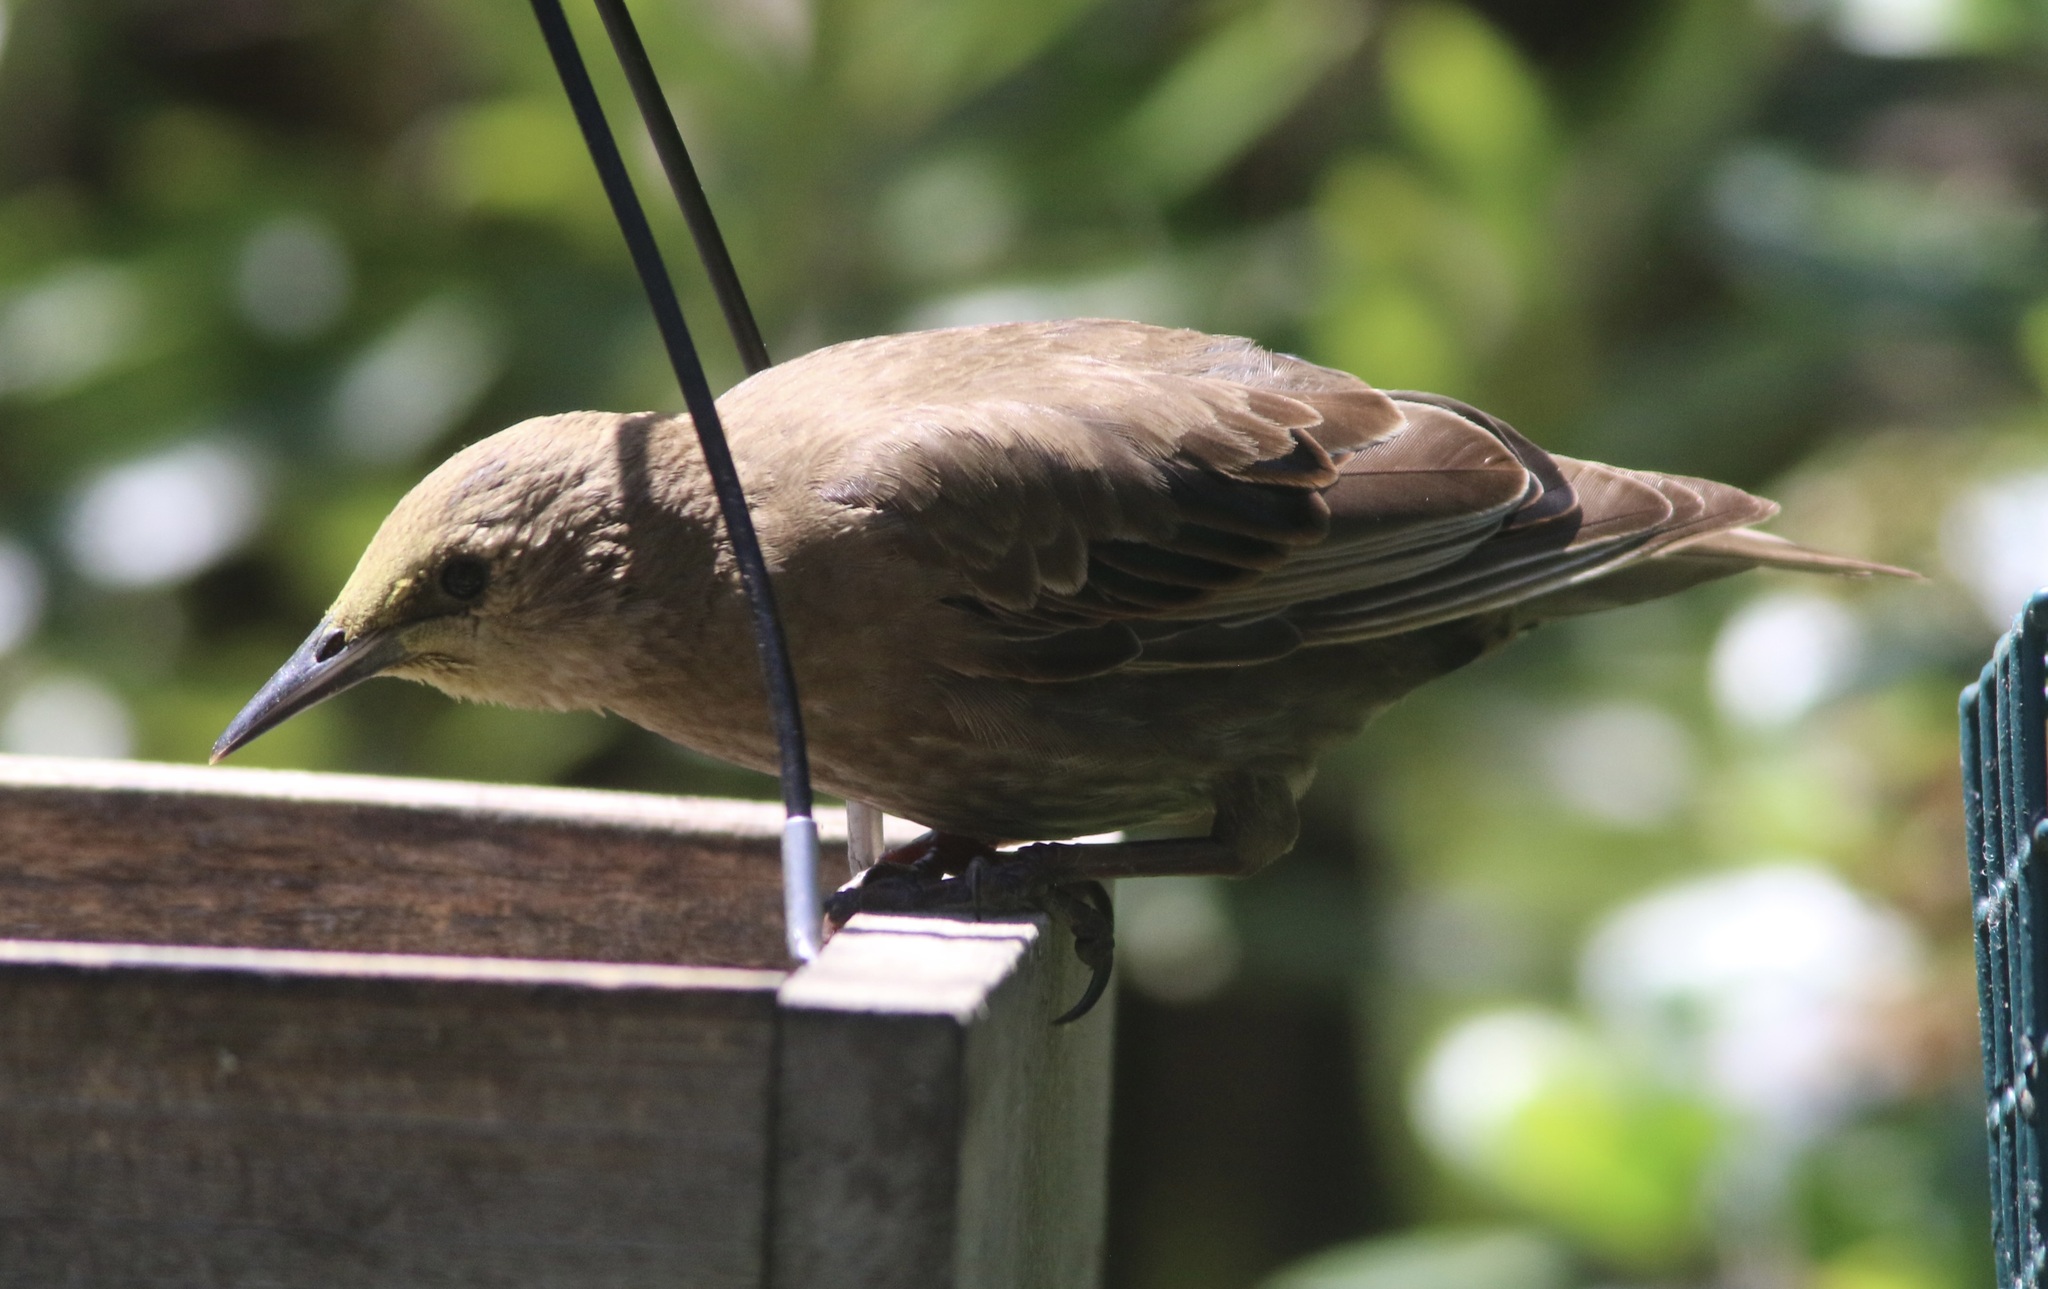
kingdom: Animalia
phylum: Chordata
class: Aves
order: Passeriformes
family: Sturnidae
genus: Sturnus
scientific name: Sturnus vulgaris
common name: Common starling
